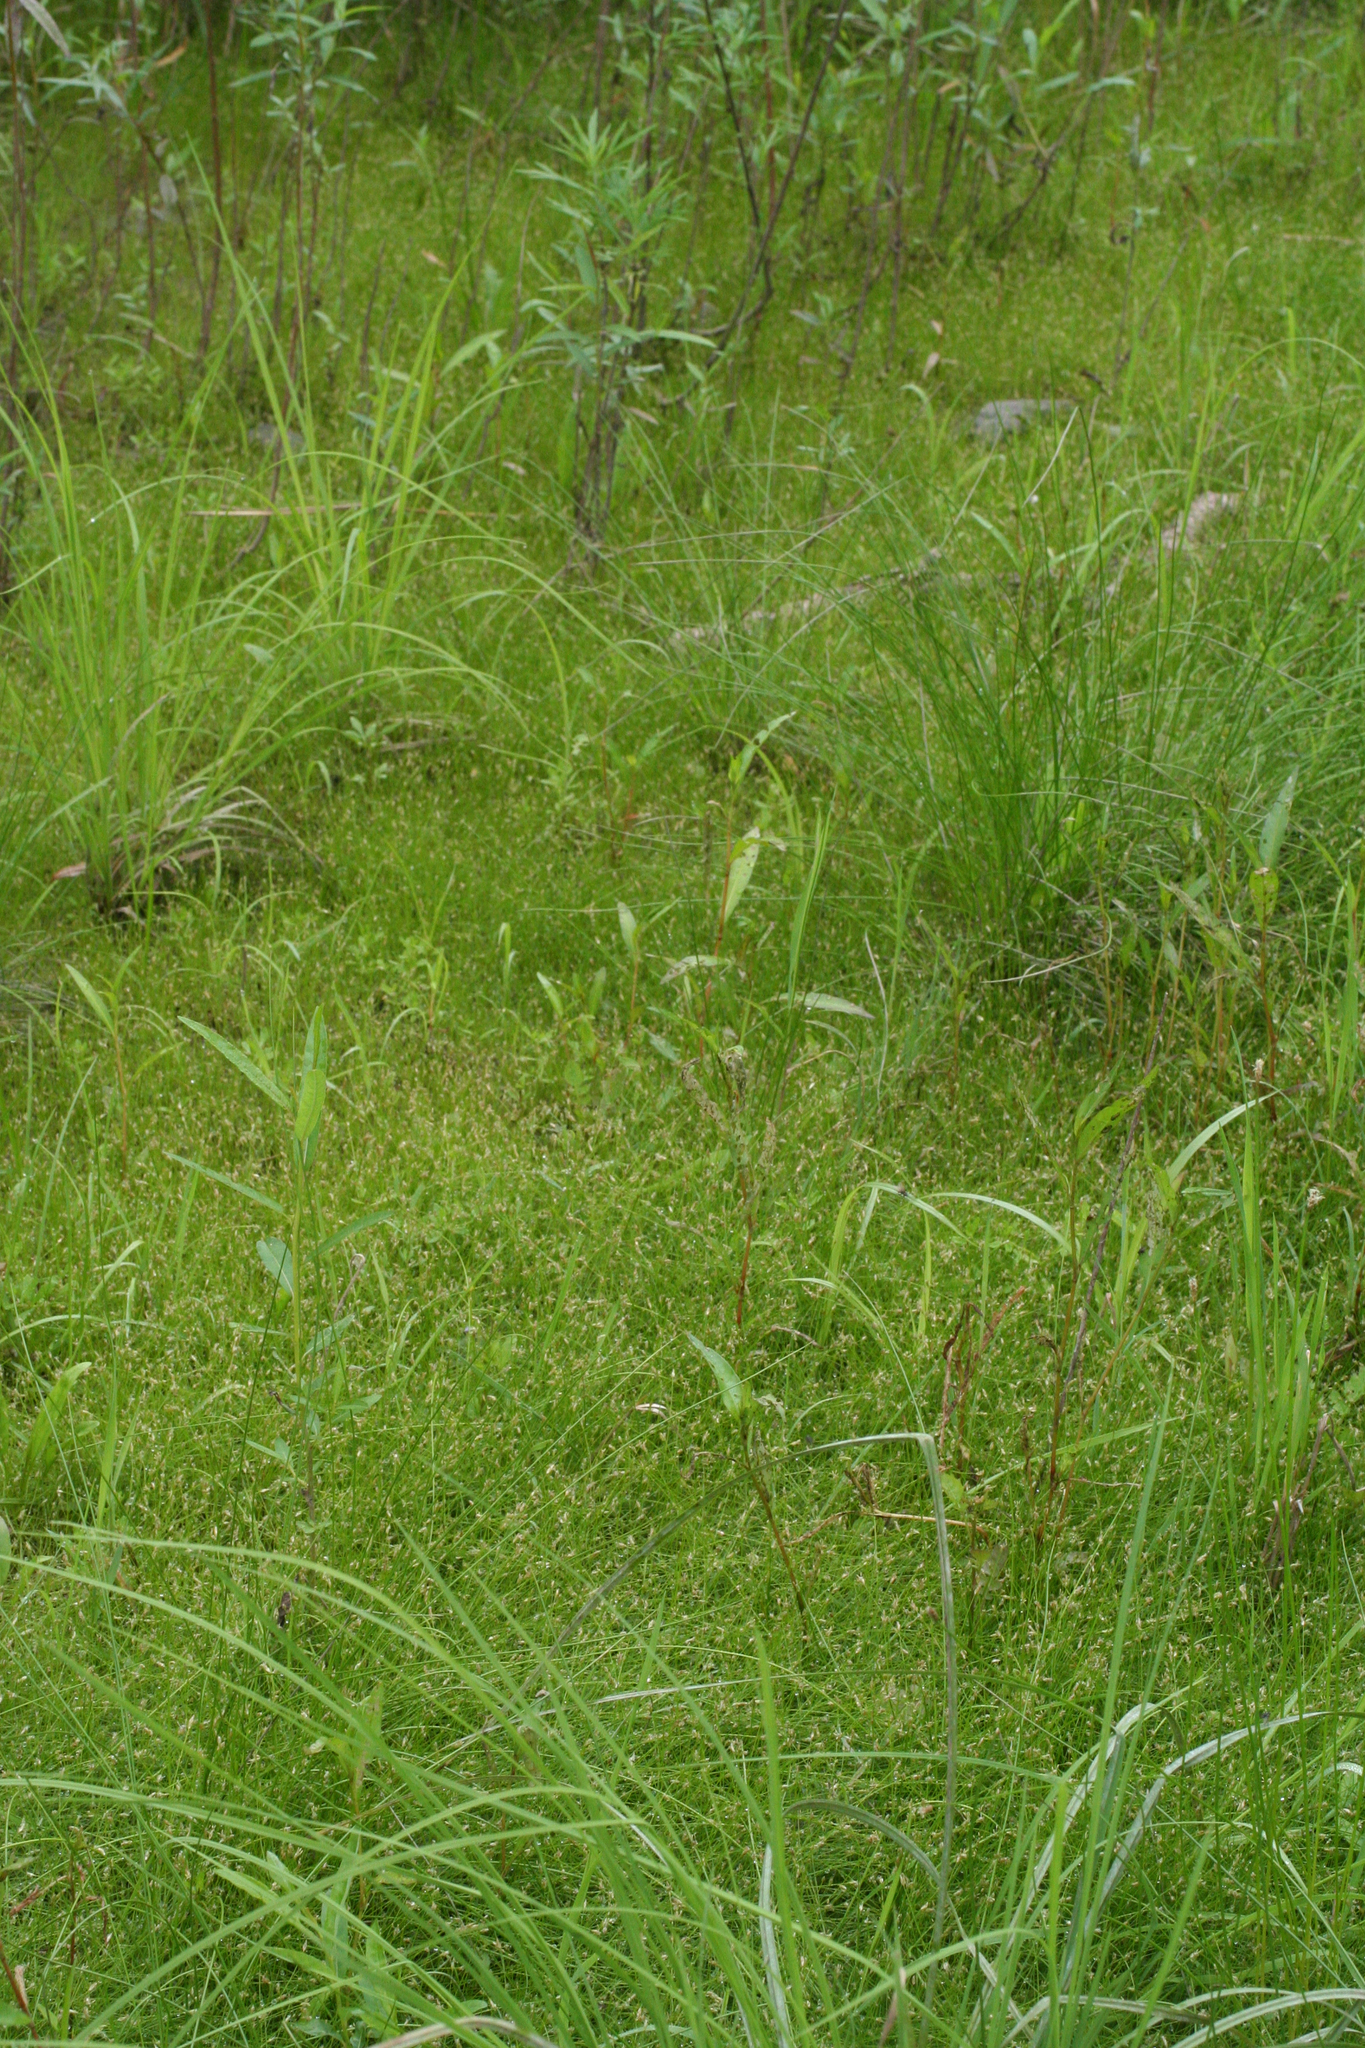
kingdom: Plantae
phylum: Tracheophyta
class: Liliopsida
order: Poales
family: Cyperaceae
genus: Schoenoplectiella
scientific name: Schoenoplectiella komarovii
